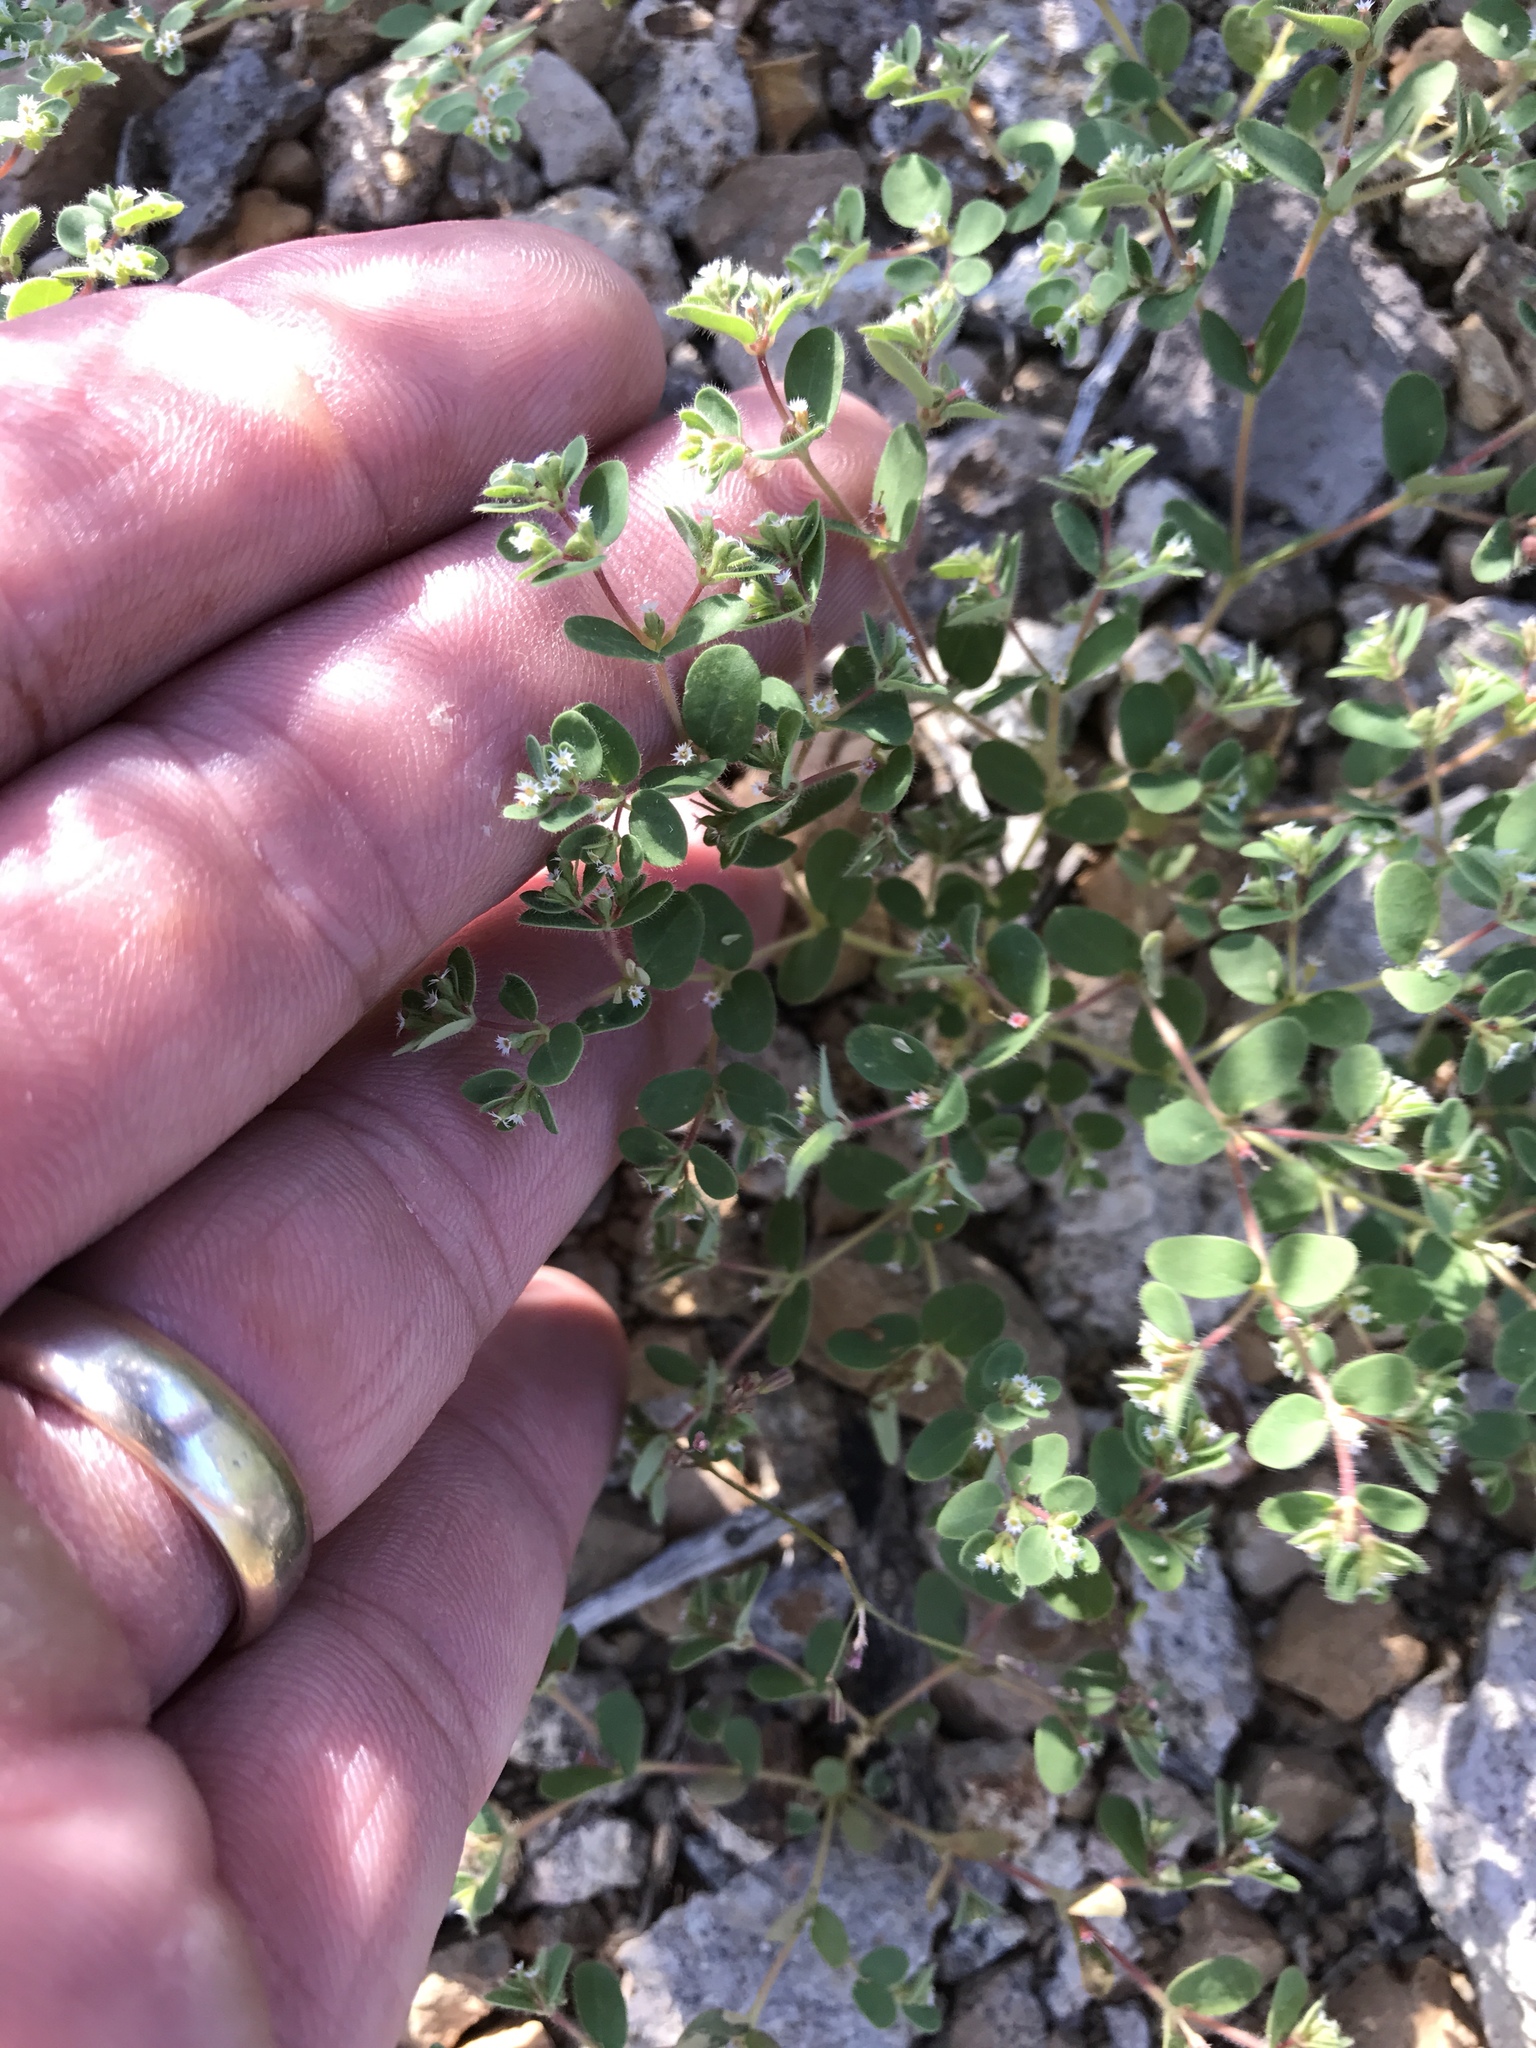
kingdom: Plantae
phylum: Tracheophyta
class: Magnoliopsida
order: Malpighiales
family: Euphorbiaceae
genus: Euphorbia
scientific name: Euphorbia setiloba
